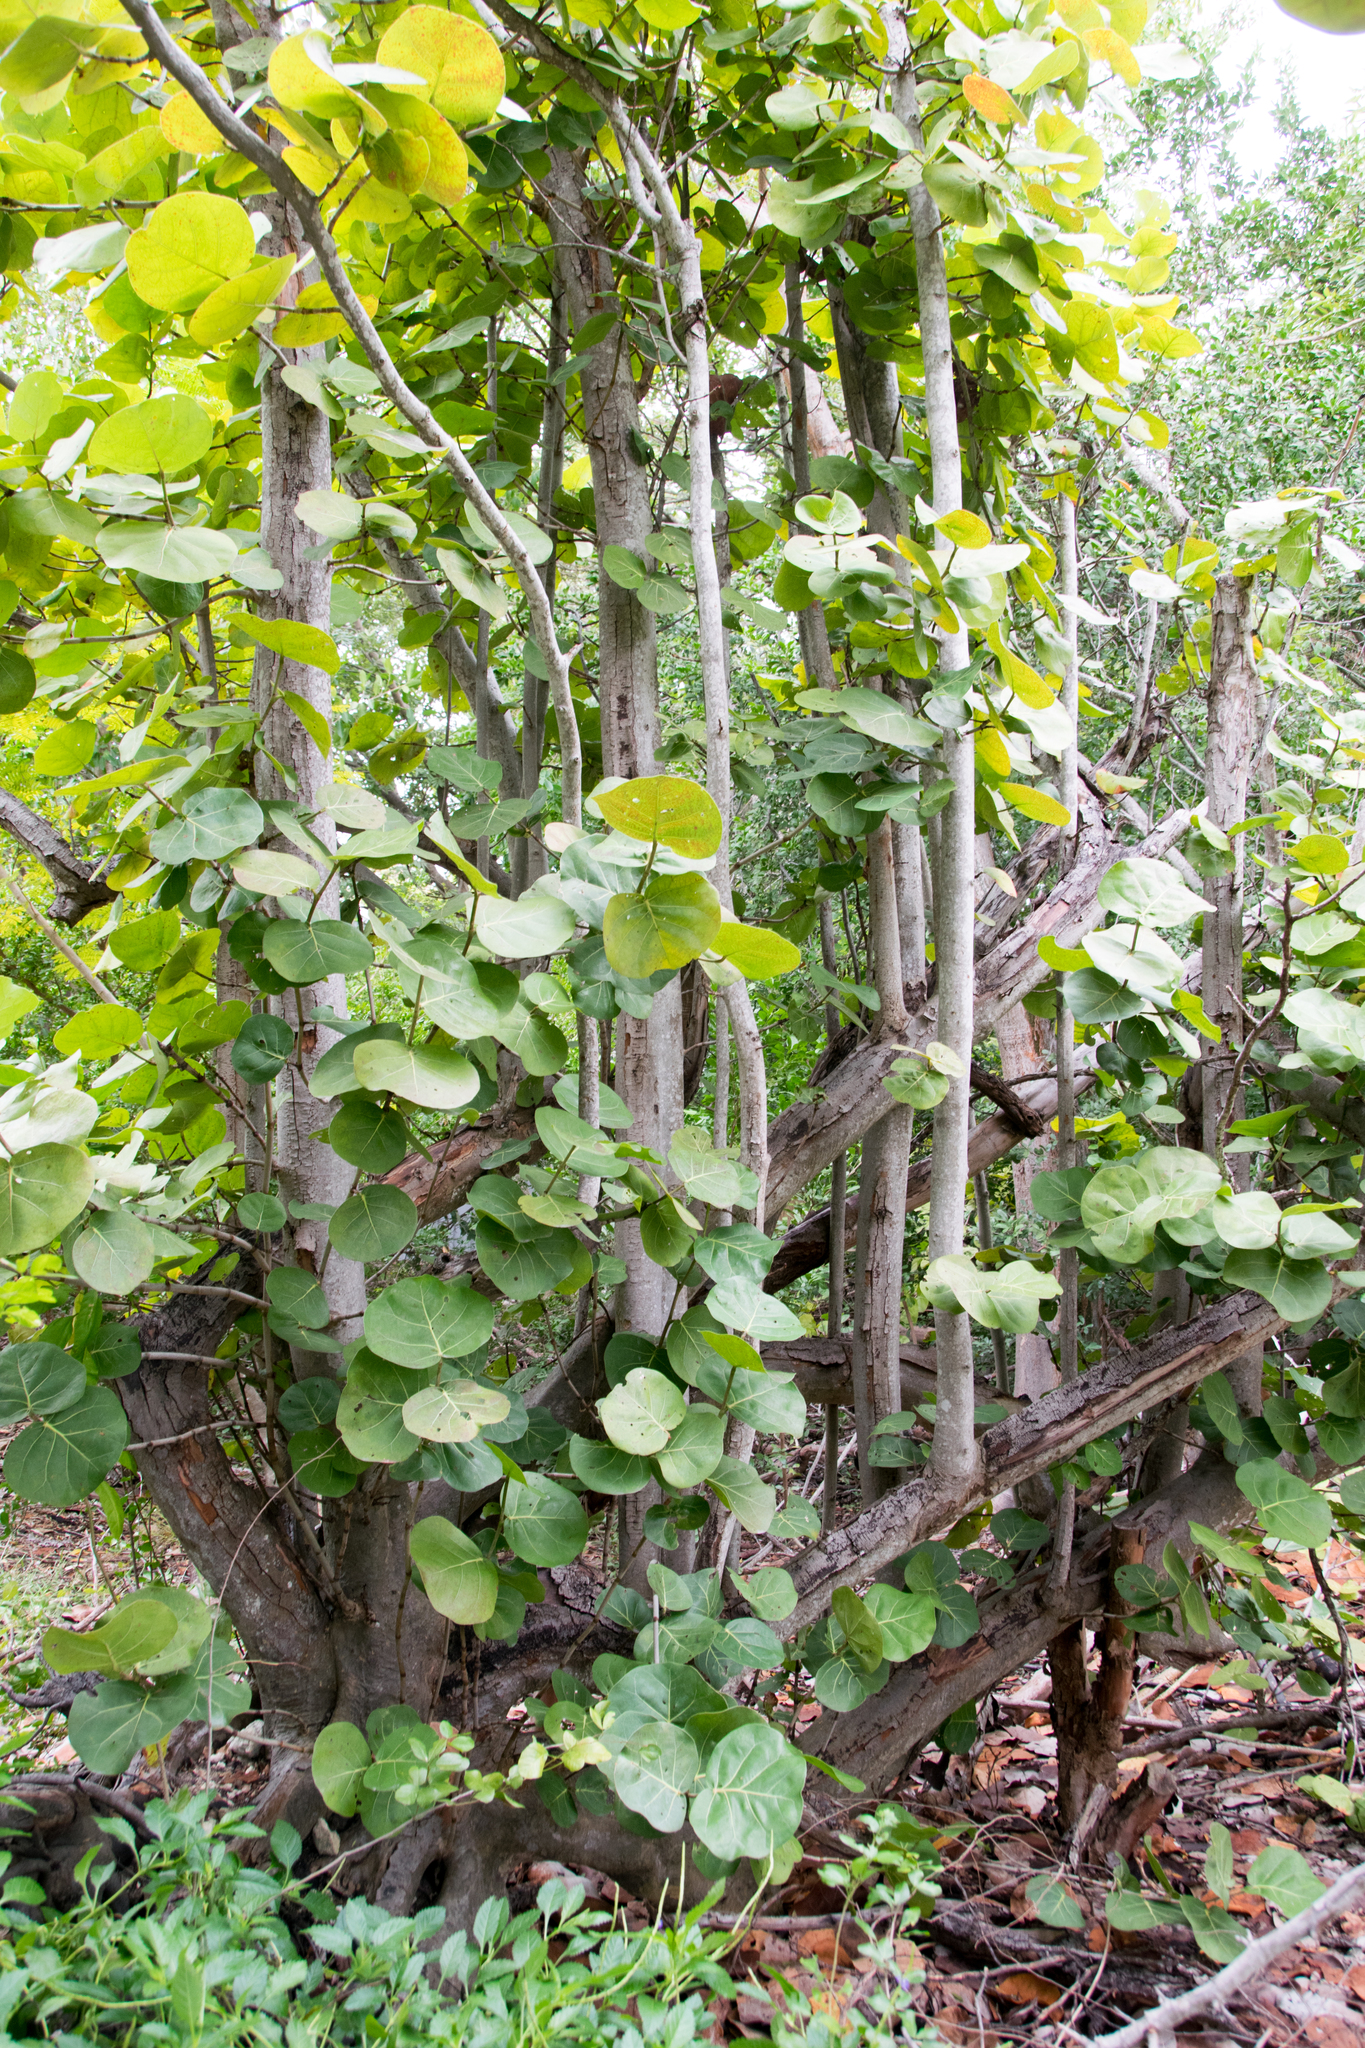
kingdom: Plantae
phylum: Tracheophyta
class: Magnoliopsida
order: Caryophyllales
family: Polygonaceae
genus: Coccoloba
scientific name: Coccoloba uvifera
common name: Seagrape
